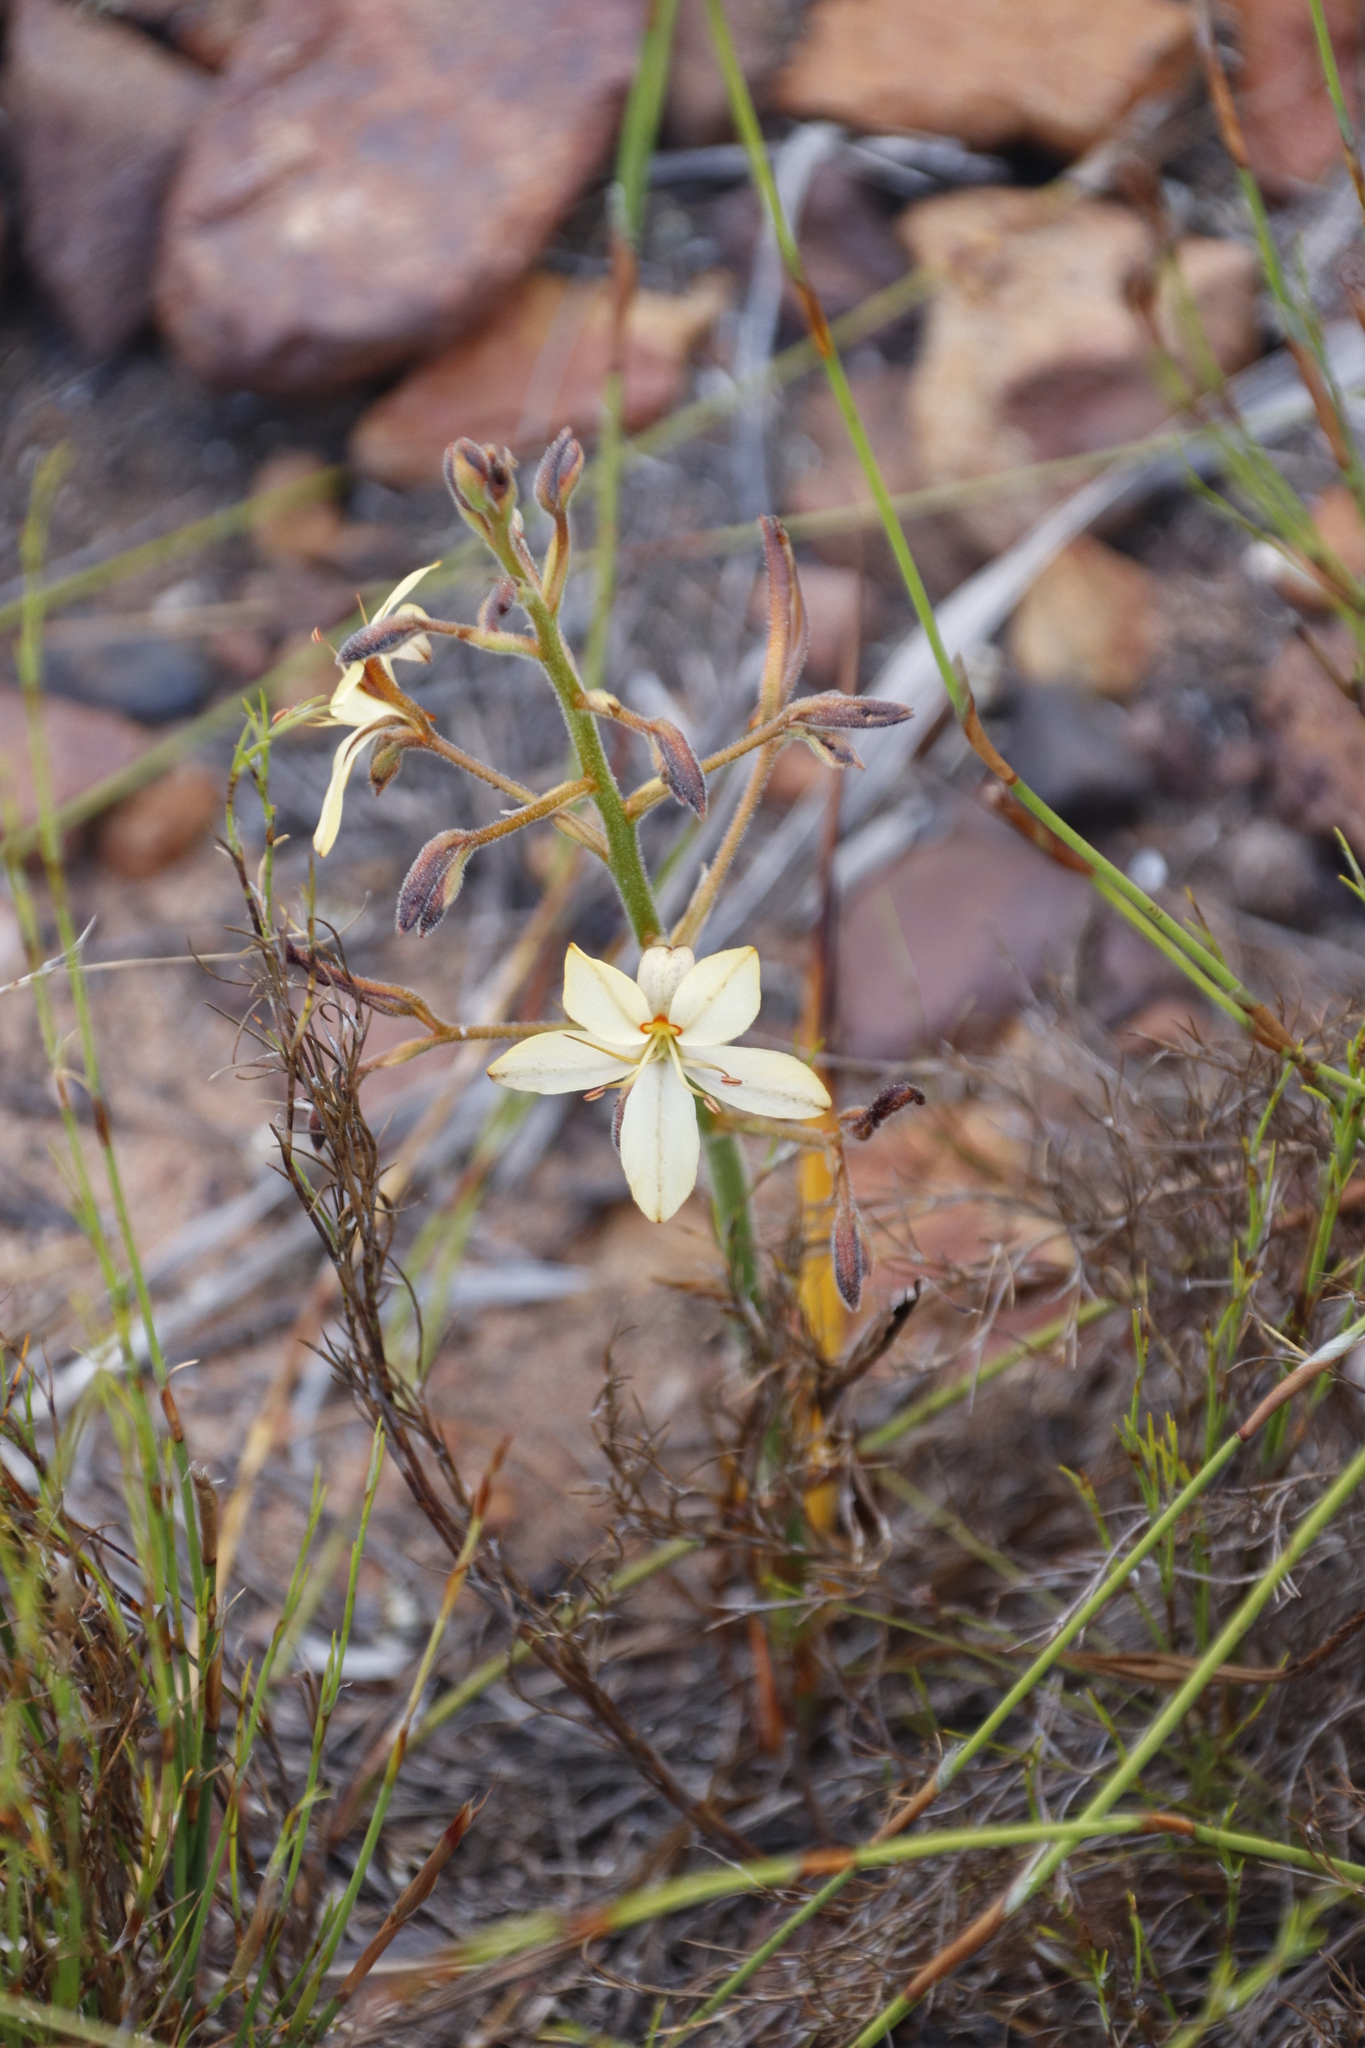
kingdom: Plantae
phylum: Tracheophyta
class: Liliopsida
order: Commelinales
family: Haemodoraceae
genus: Wachendorfia
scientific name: Wachendorfia paniculata
